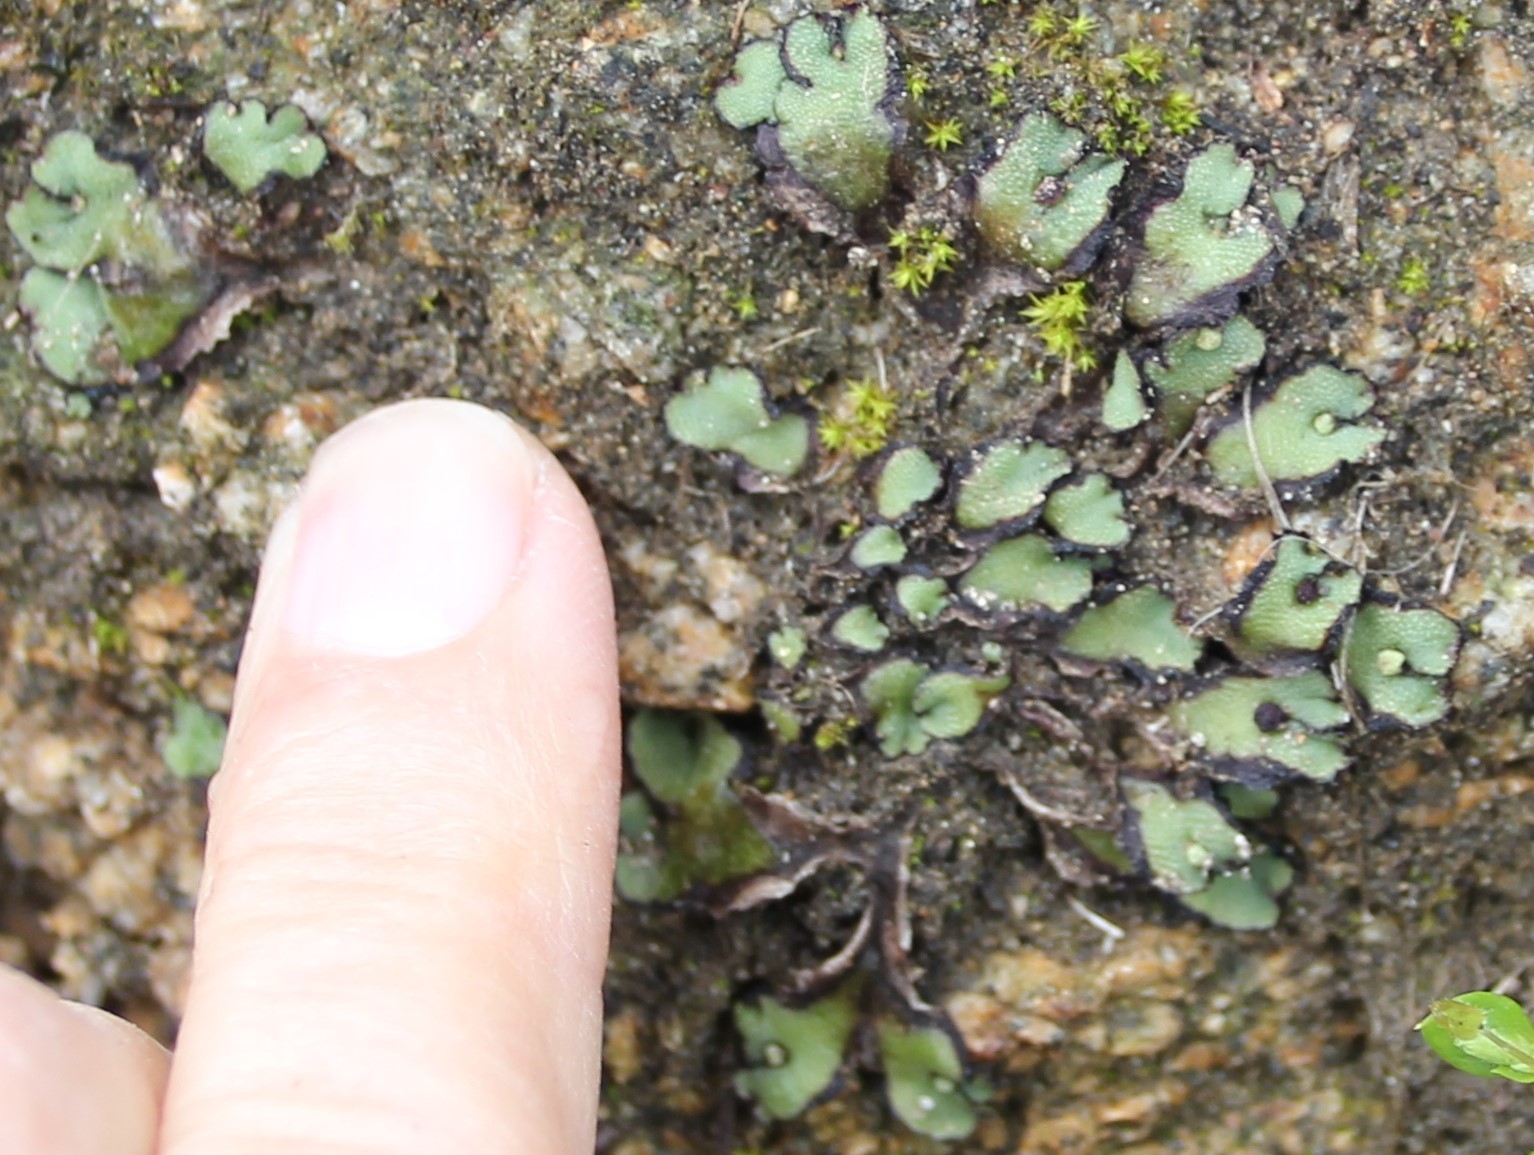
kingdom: Plantae
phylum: Marchantiophyta
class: Marchantiopsida
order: Marchantiales
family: Aytoniaceae
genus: Asterella
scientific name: Asterella californica
